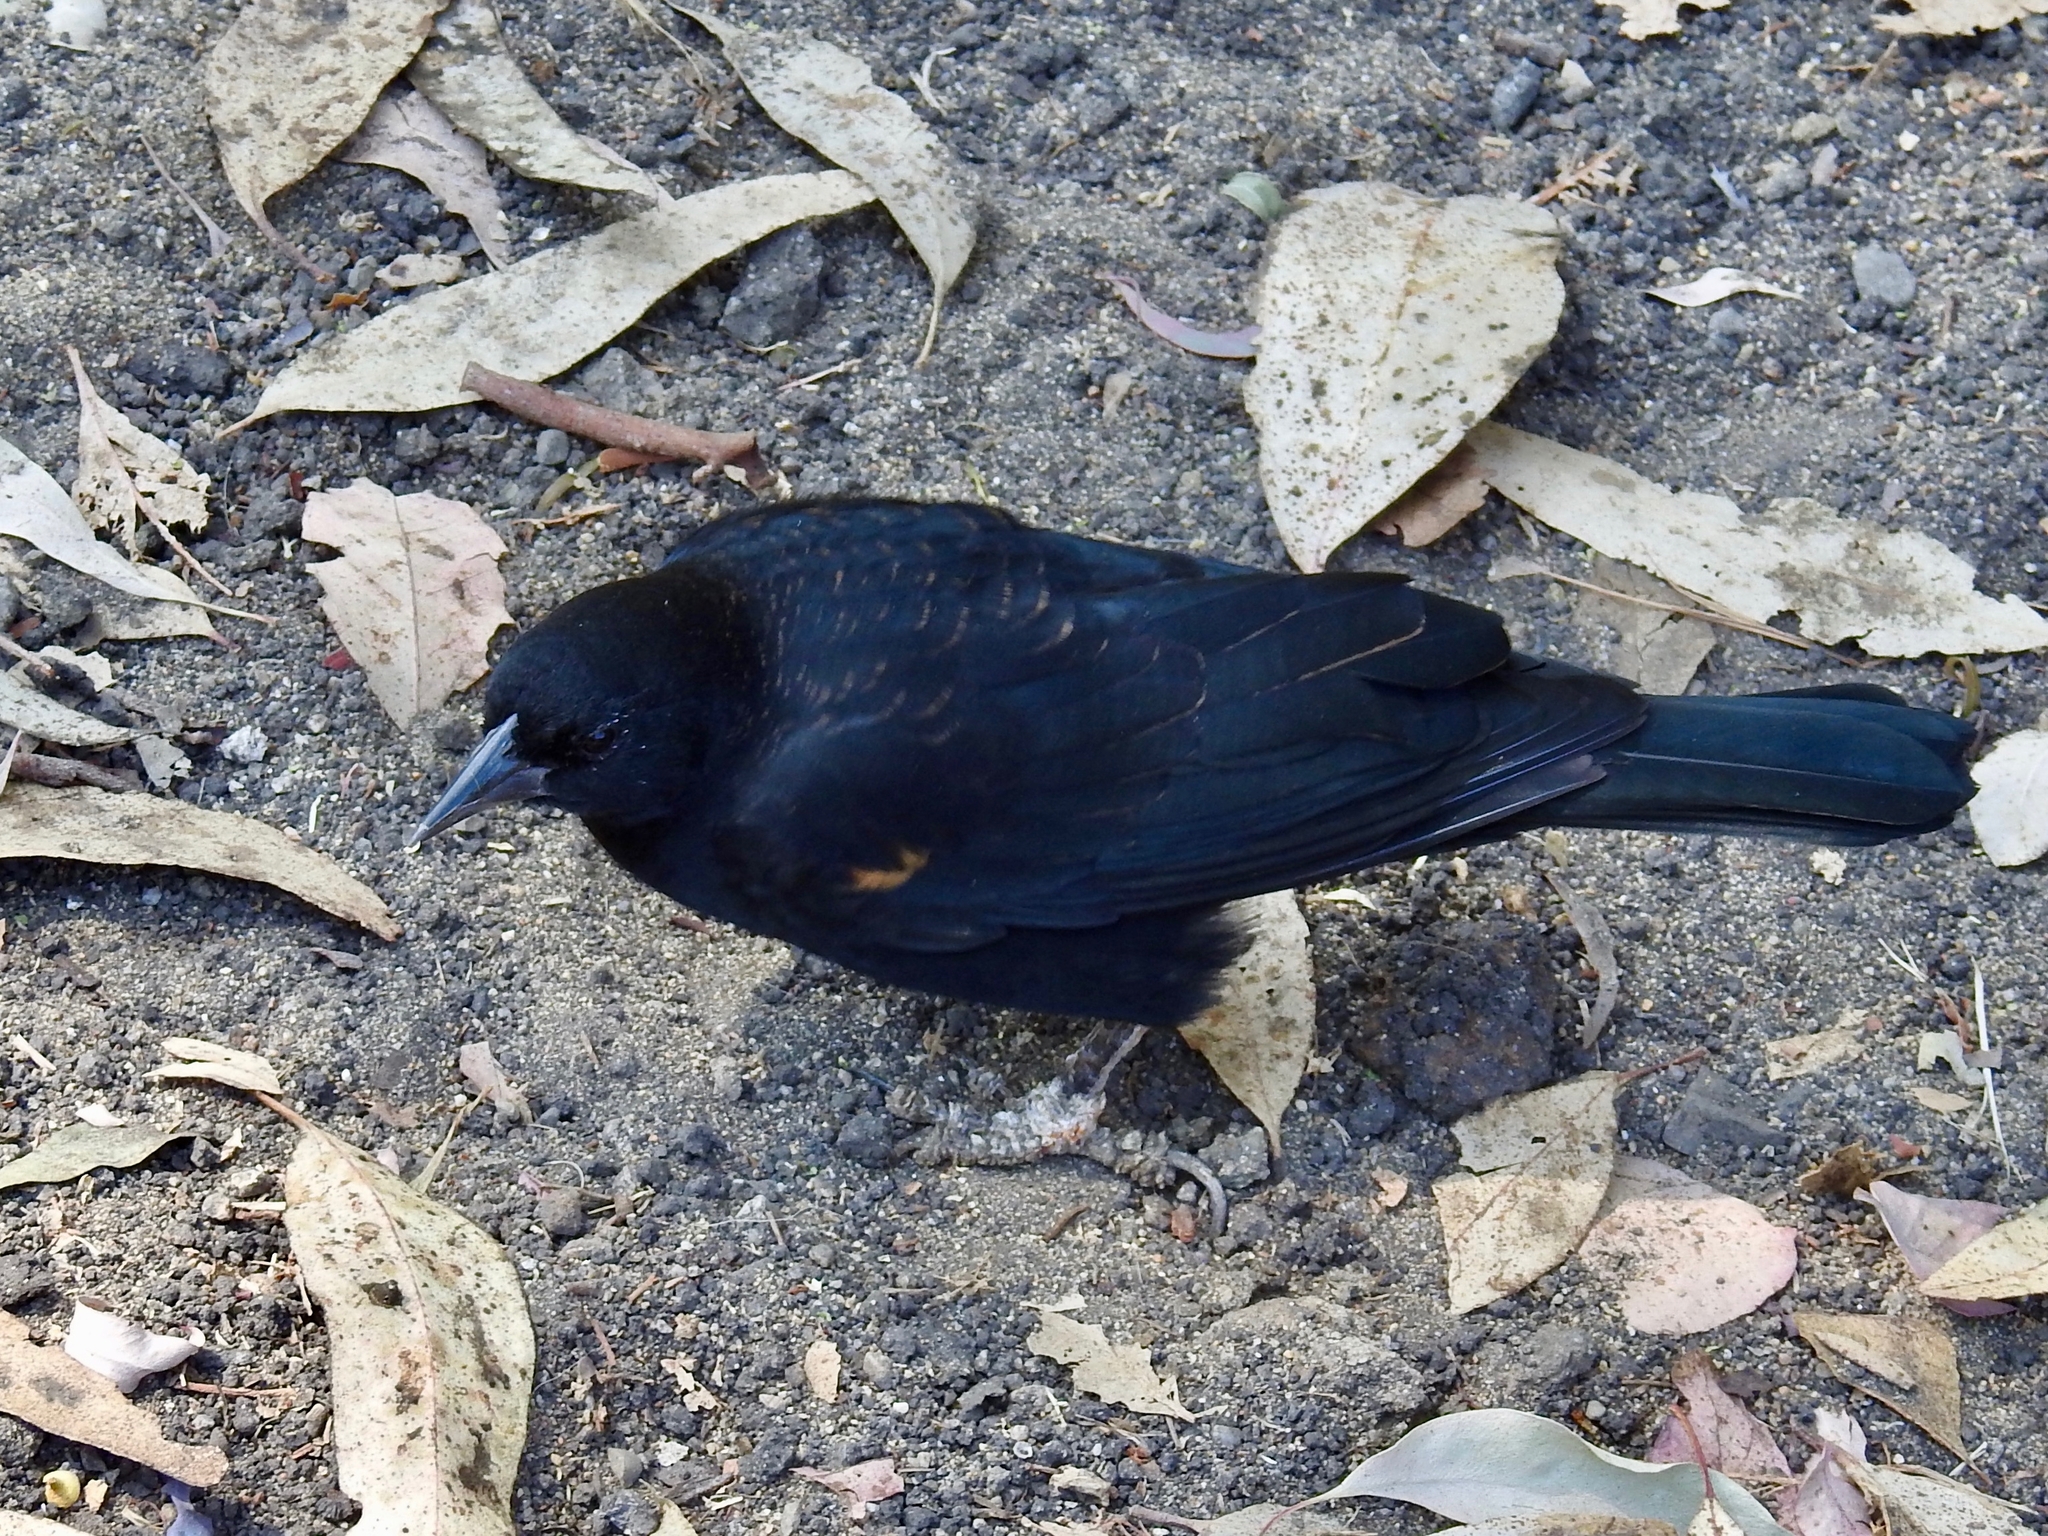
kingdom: Animalia
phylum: Chordata
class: Aves
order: Passeriformes
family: Icteridae
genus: Agelaius
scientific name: Agelaius phoeniceus
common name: Red-winged blackbird
